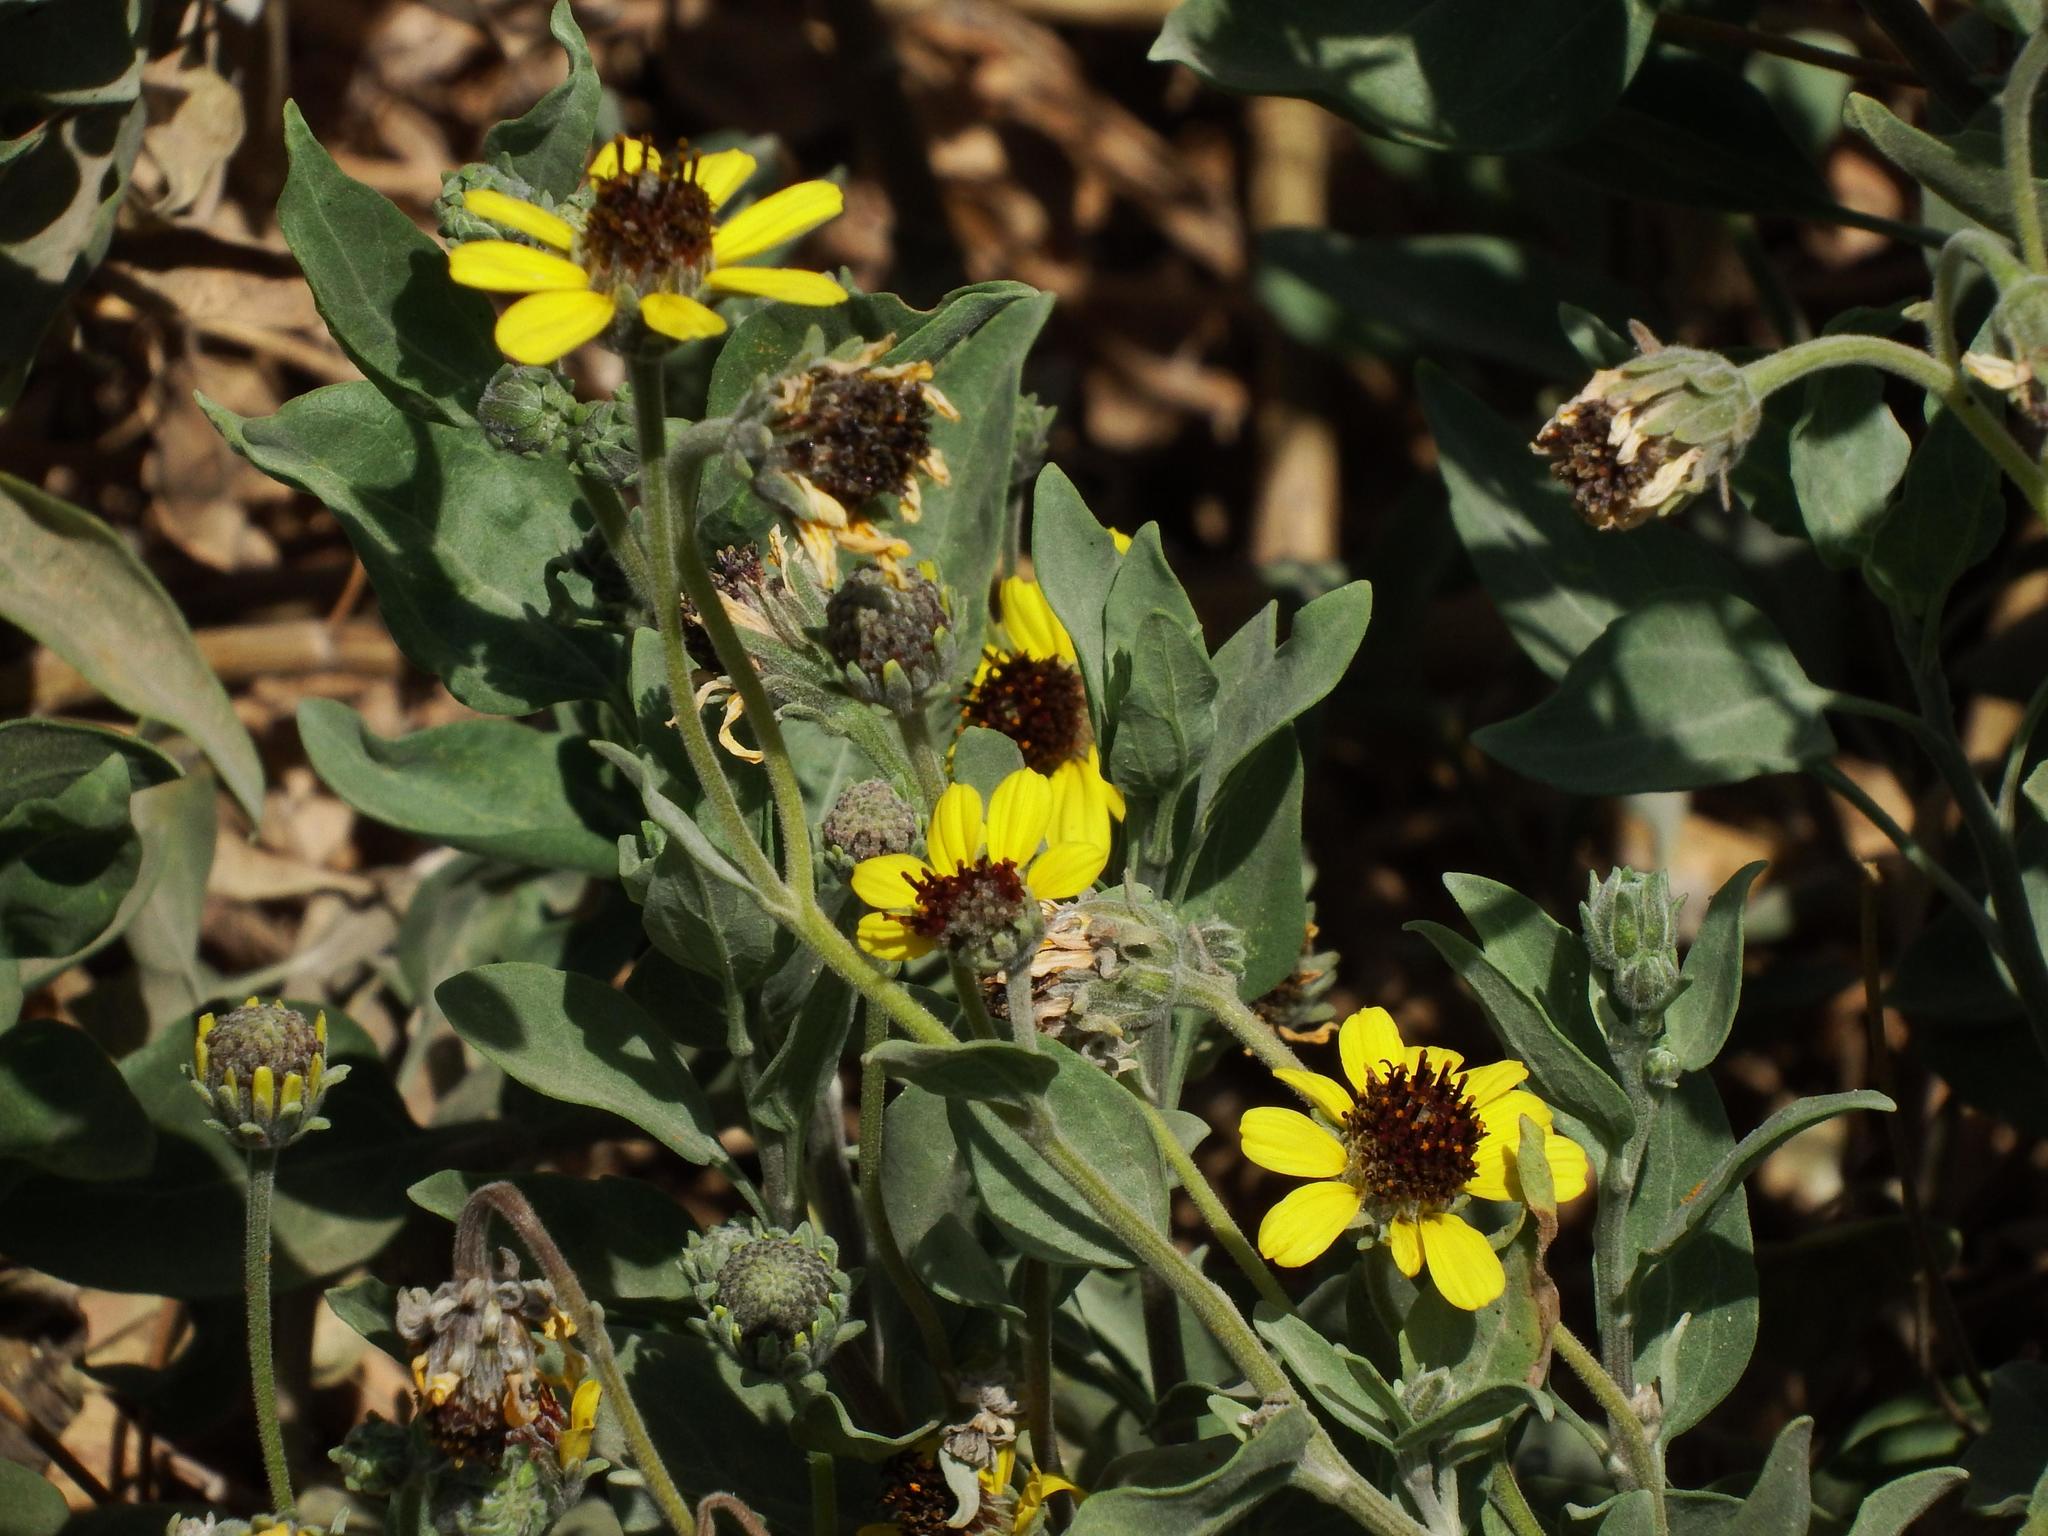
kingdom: Plantae
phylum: Tracheophyta
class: Magnoliopsida
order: Asterales
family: Asteraceae
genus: Encelia
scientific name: Encelia canescens
